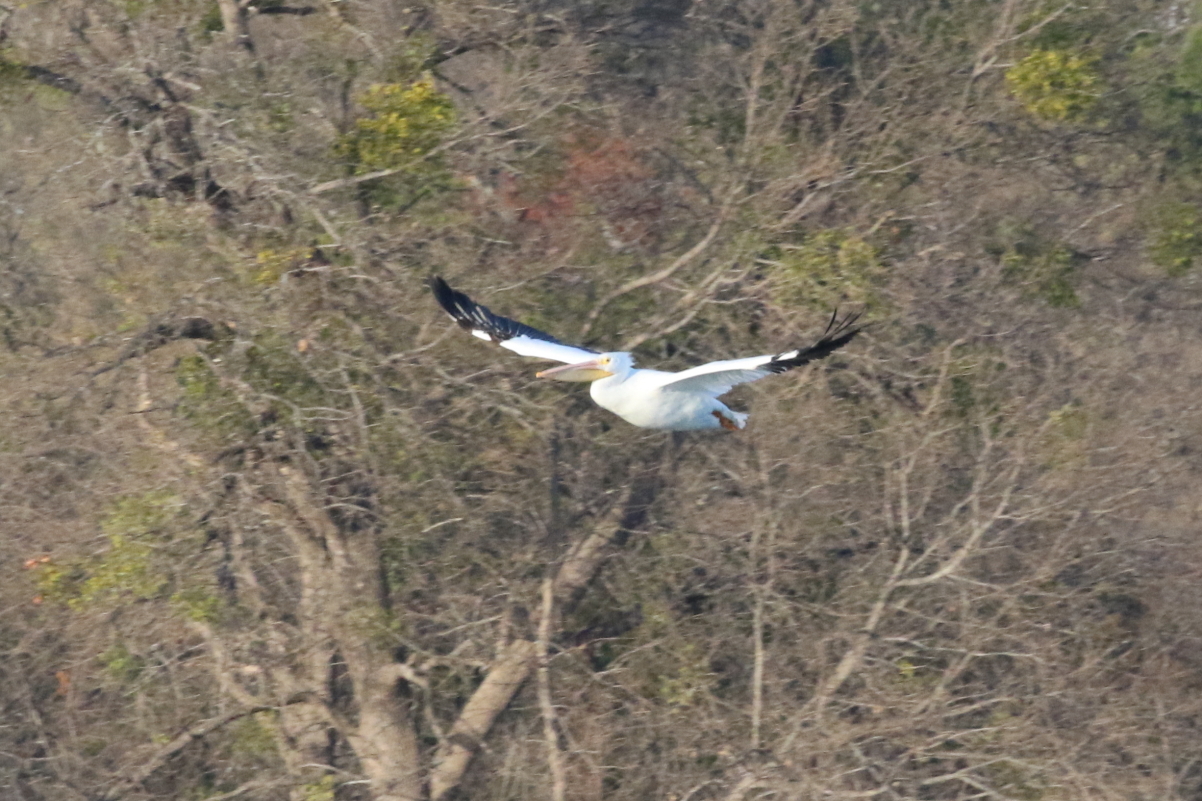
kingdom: Animalia
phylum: Chordata
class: Aves
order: Pelecaniformes
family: Pelecanidae
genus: Pelecanus
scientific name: Pelecanus erythrorhynchos
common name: American white pelican
